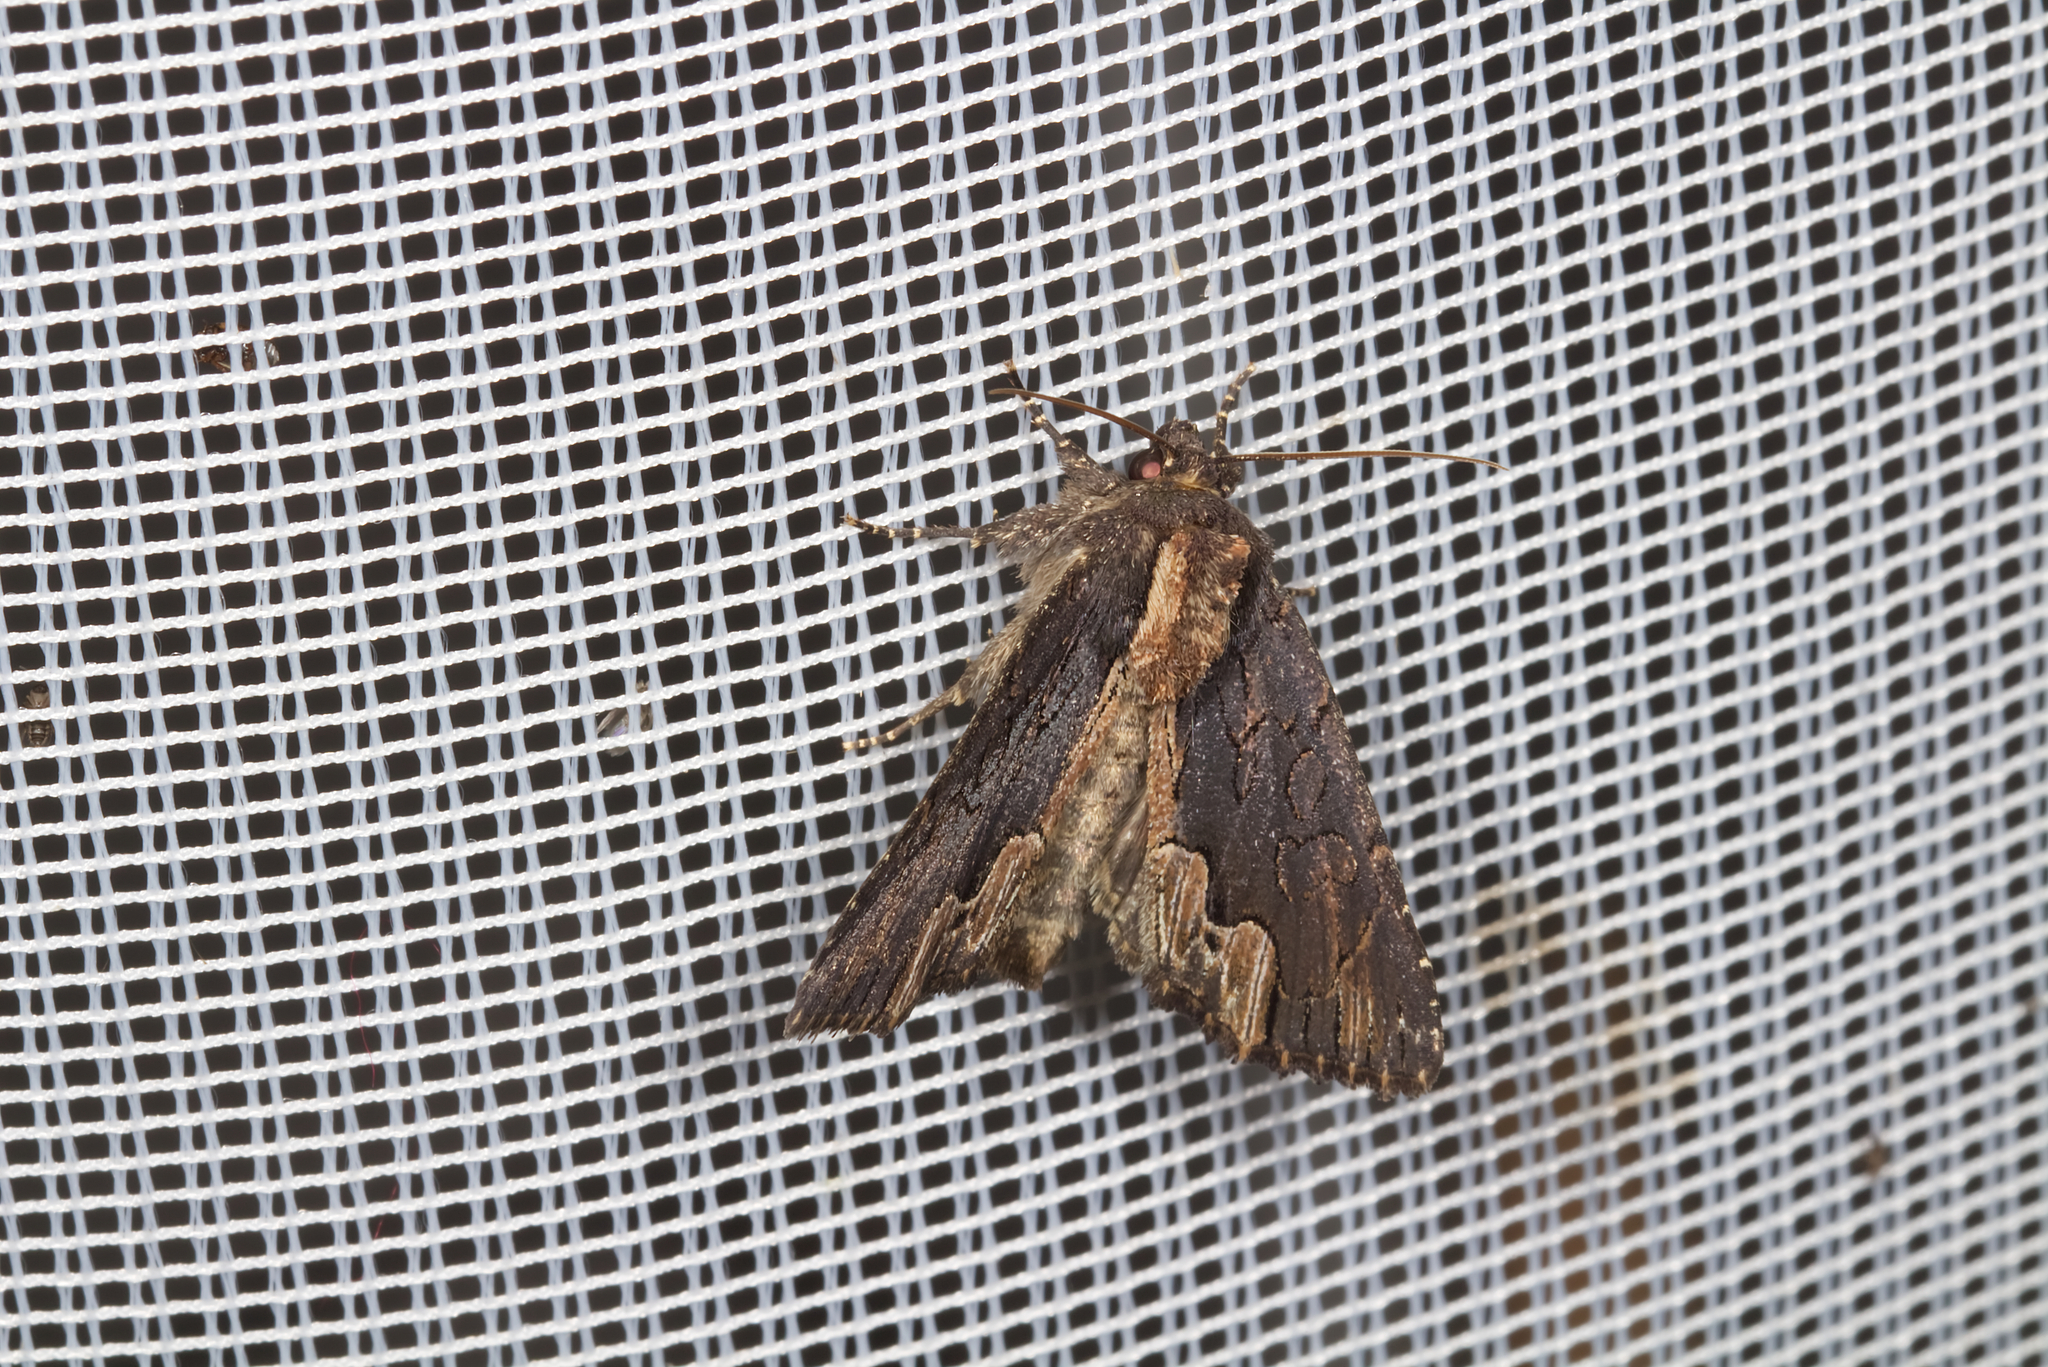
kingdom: Animalia
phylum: Arthropoda
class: Insecta
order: Lepidoptera
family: Noctuidae
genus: Dypterygia
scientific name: Dypterygia scabriuscula
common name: Bird's wing
